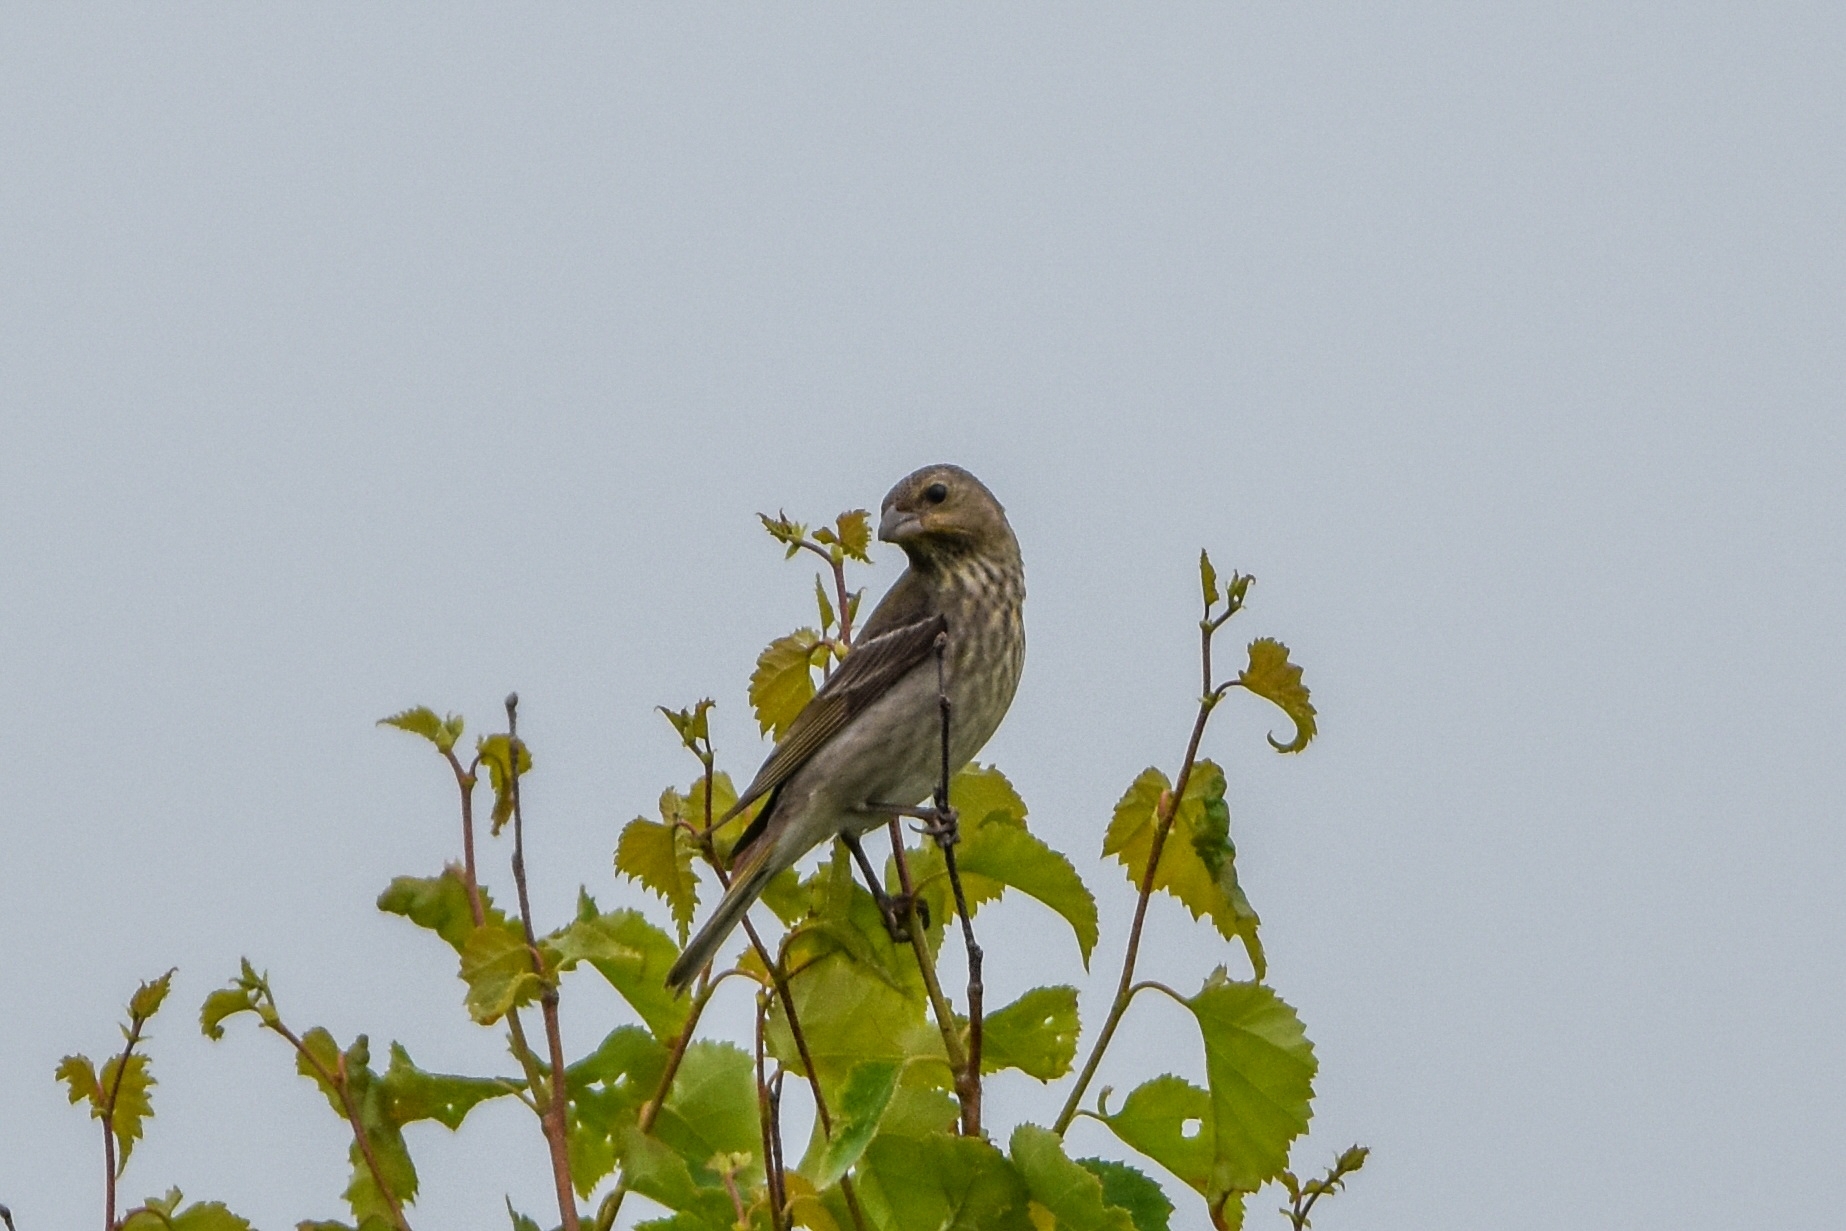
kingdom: Animalia
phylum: Chordata
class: Aves
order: Passeriformes
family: Fringillidae
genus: Carpodacus
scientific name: Carpodacus erythrinus
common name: Common rosefinch
